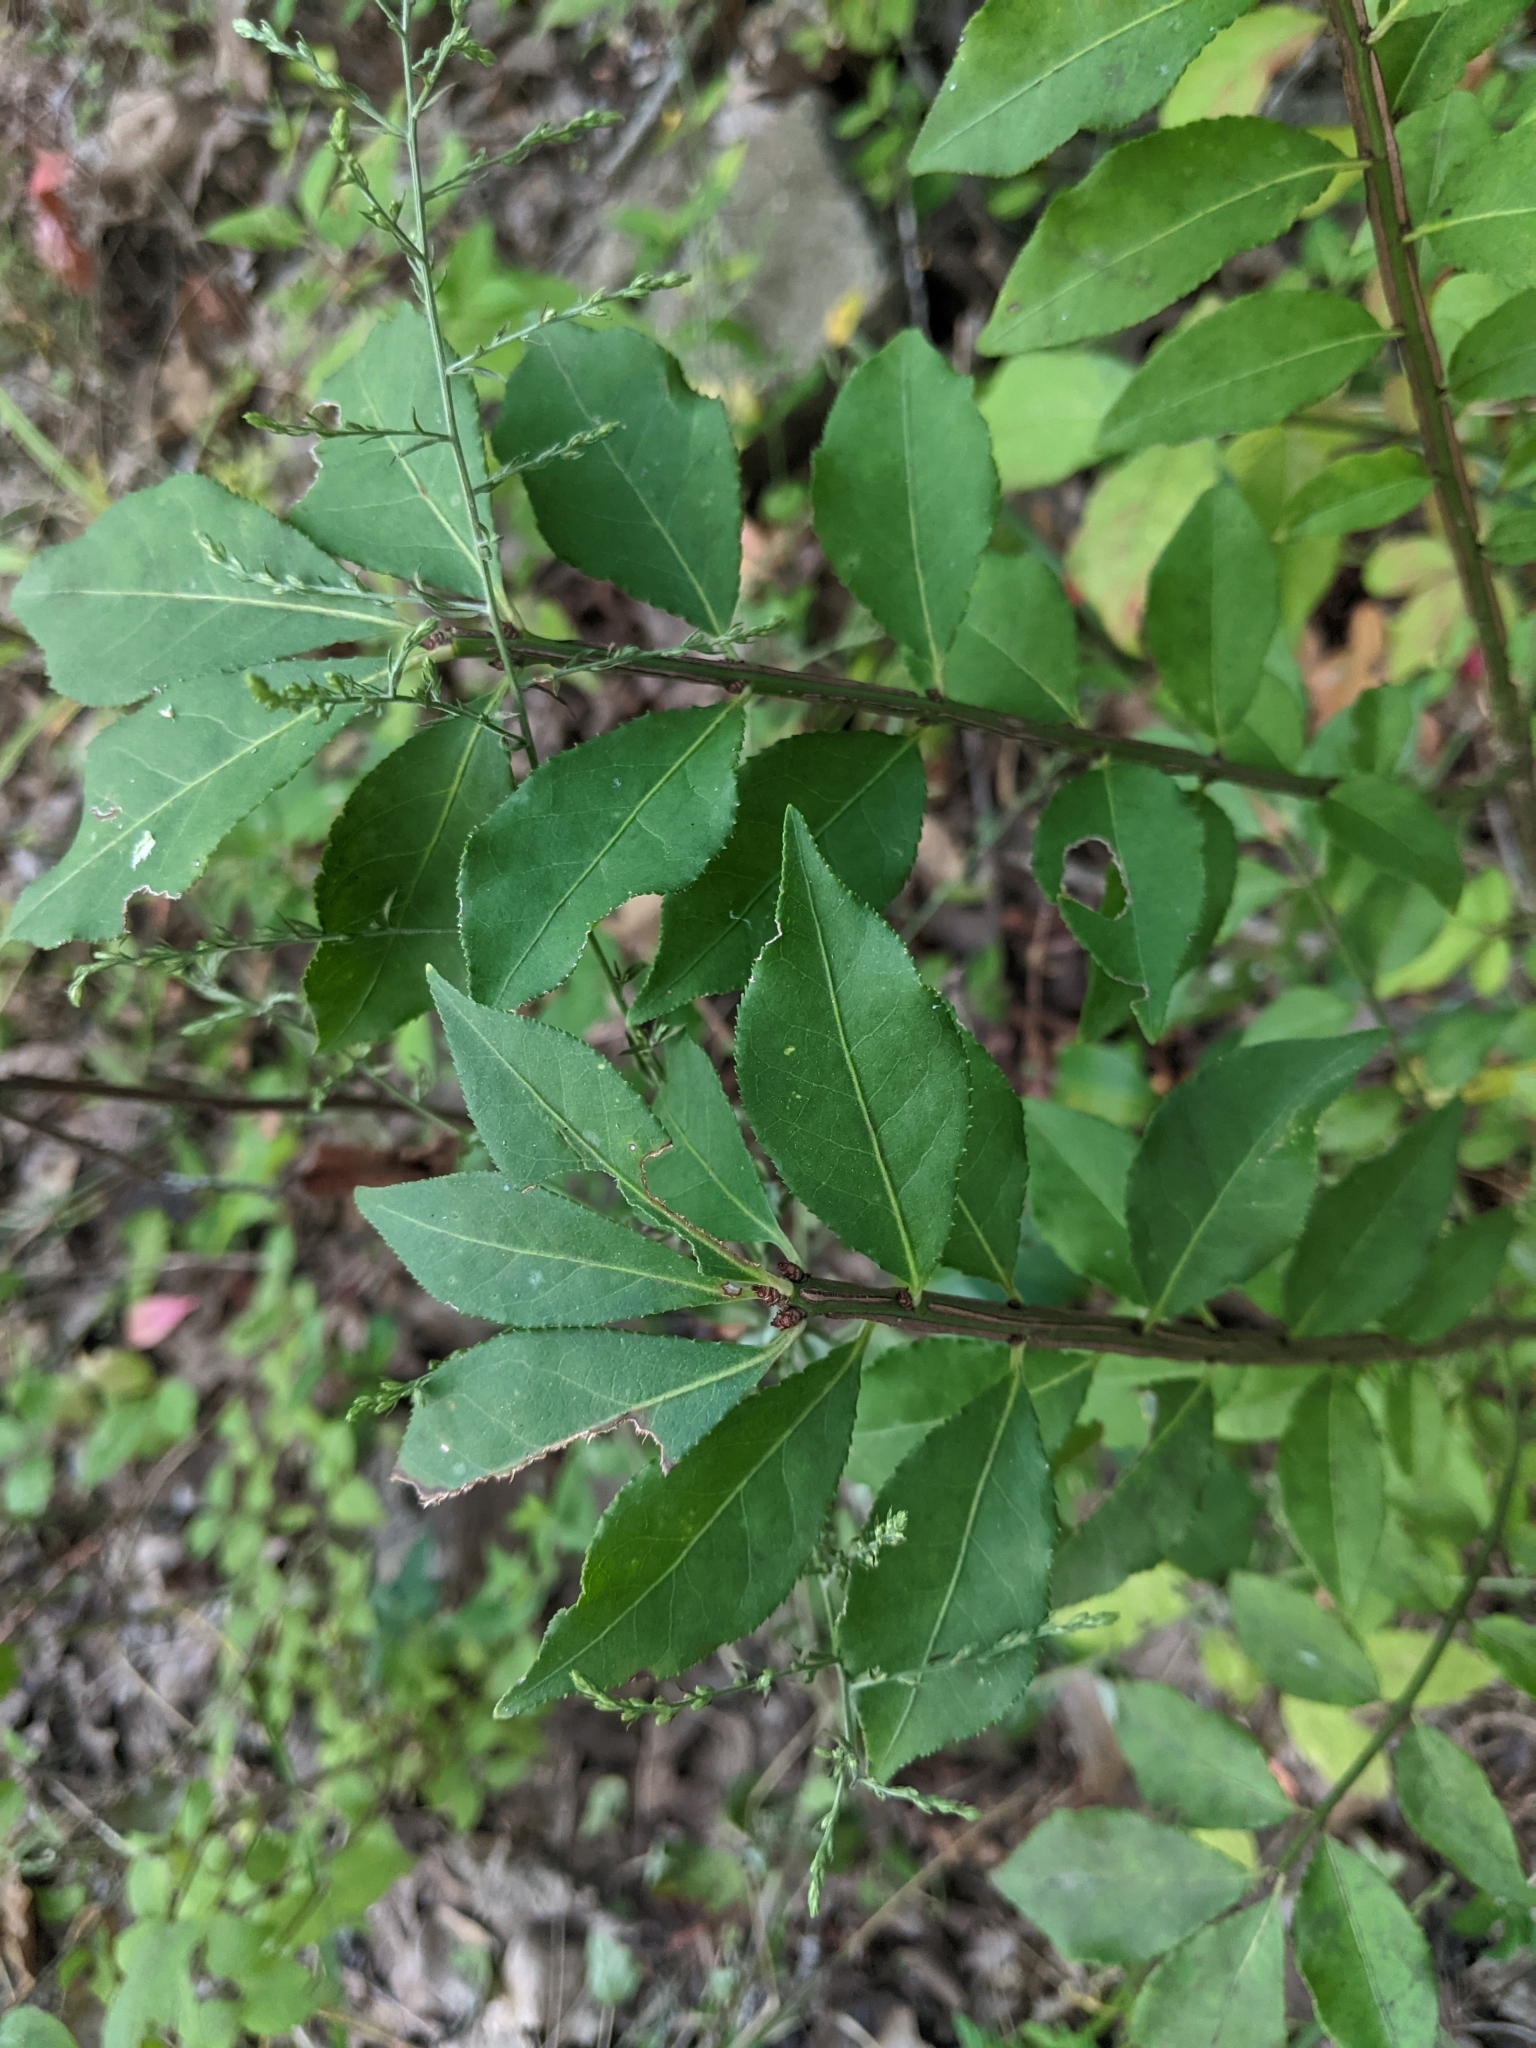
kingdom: Plantae
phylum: Tracheophyta
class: Magnoliopsida
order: Celastrales
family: Celastraceae
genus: Euonymus
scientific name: Euonymus alatus
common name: Winged euonymus
